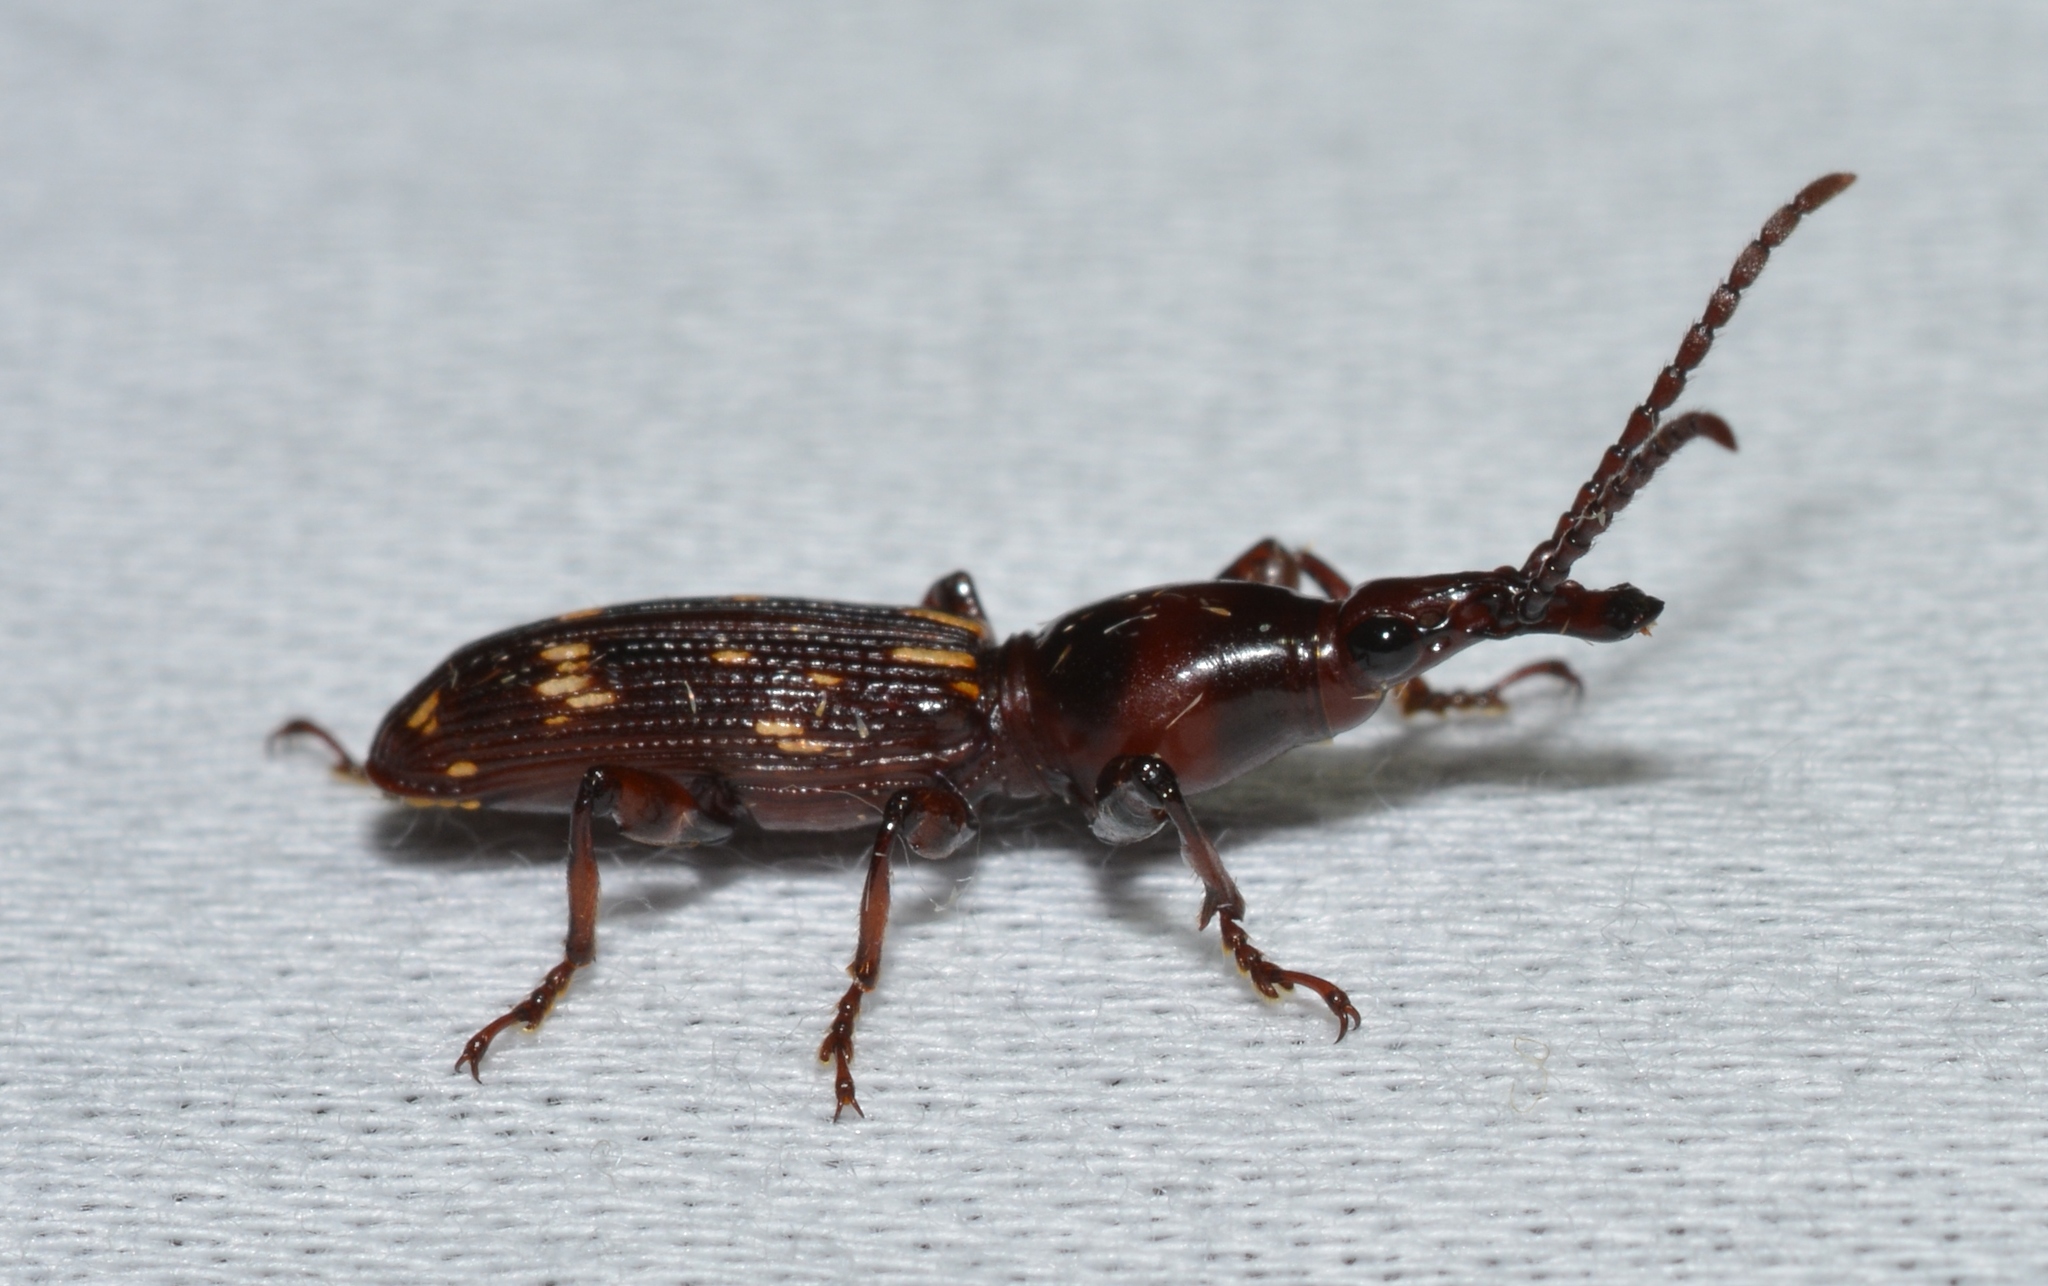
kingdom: Animalia
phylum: Arthropoda
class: Insecta
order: Coleoptera
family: Brentidae
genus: Arrenodes
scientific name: Arrenodes minutus
